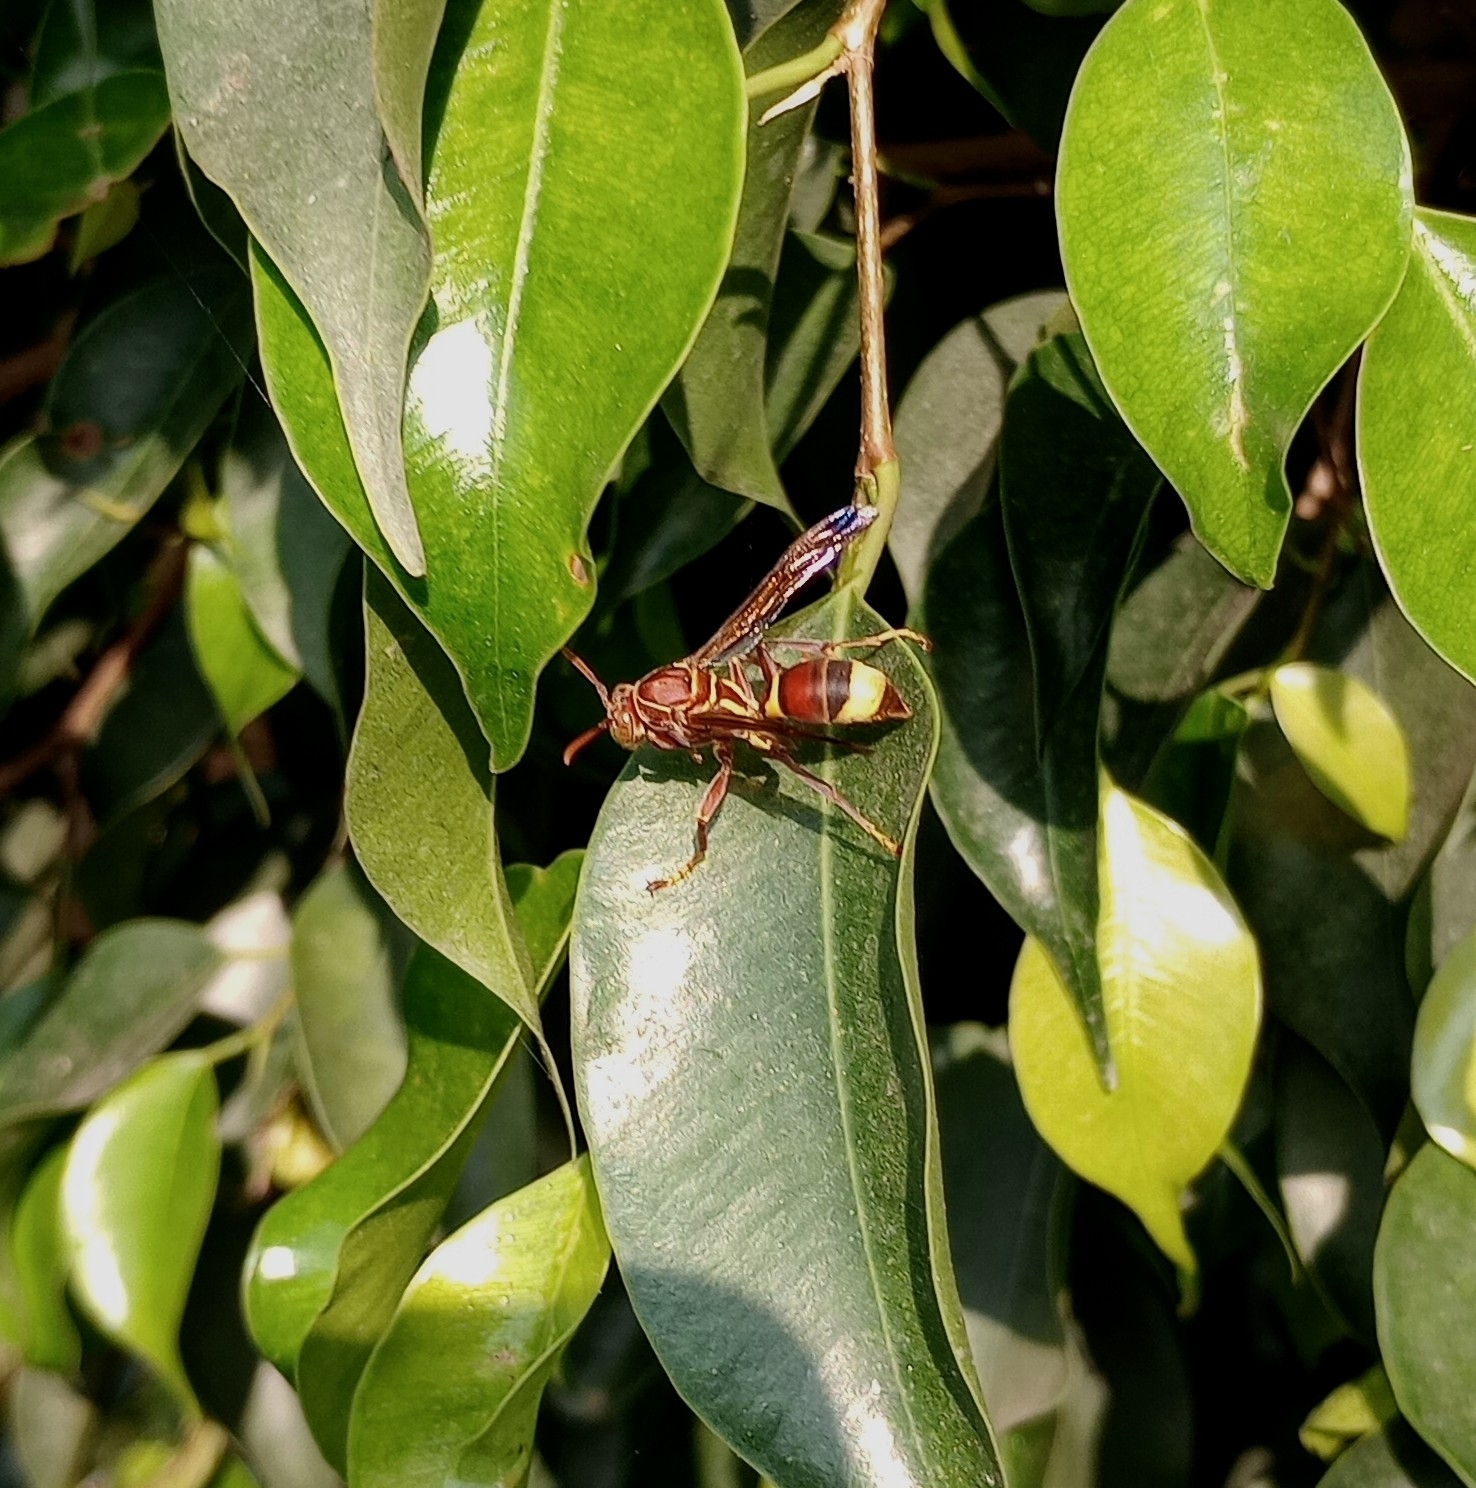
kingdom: Animalia
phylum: Arthropoda
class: Insecta
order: Hymenoptera
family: Eumenidae
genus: Polistes
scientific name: Polistes stigma
